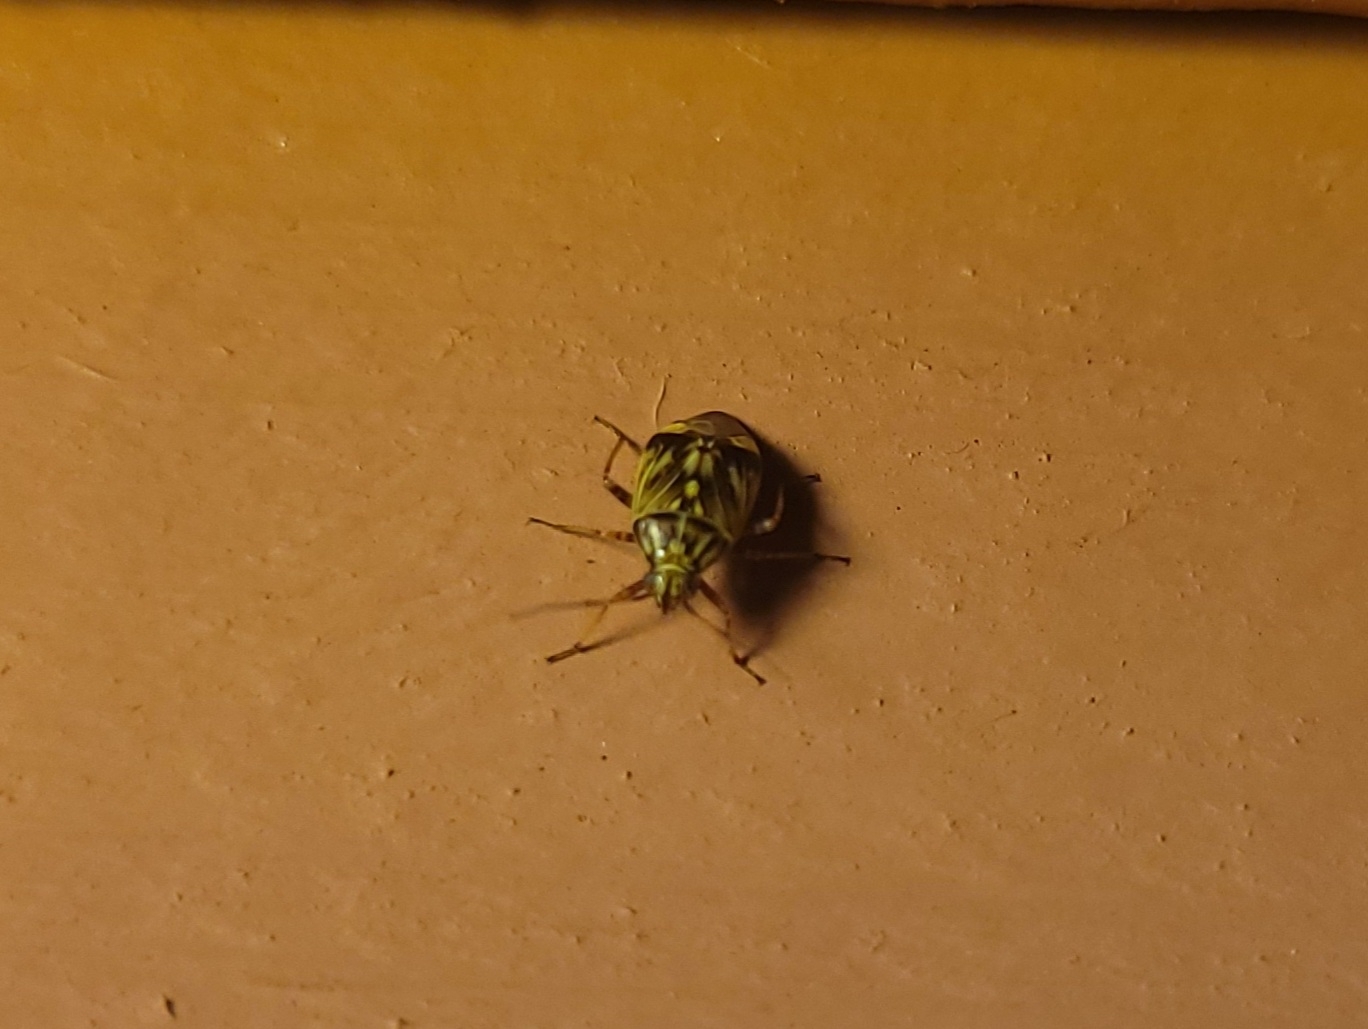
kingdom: Animalia
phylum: Arthropoda
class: Insecta
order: Hemiptera
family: Miridae
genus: Lygus
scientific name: Lygus lineolaris
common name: North american tarnished plant bug
